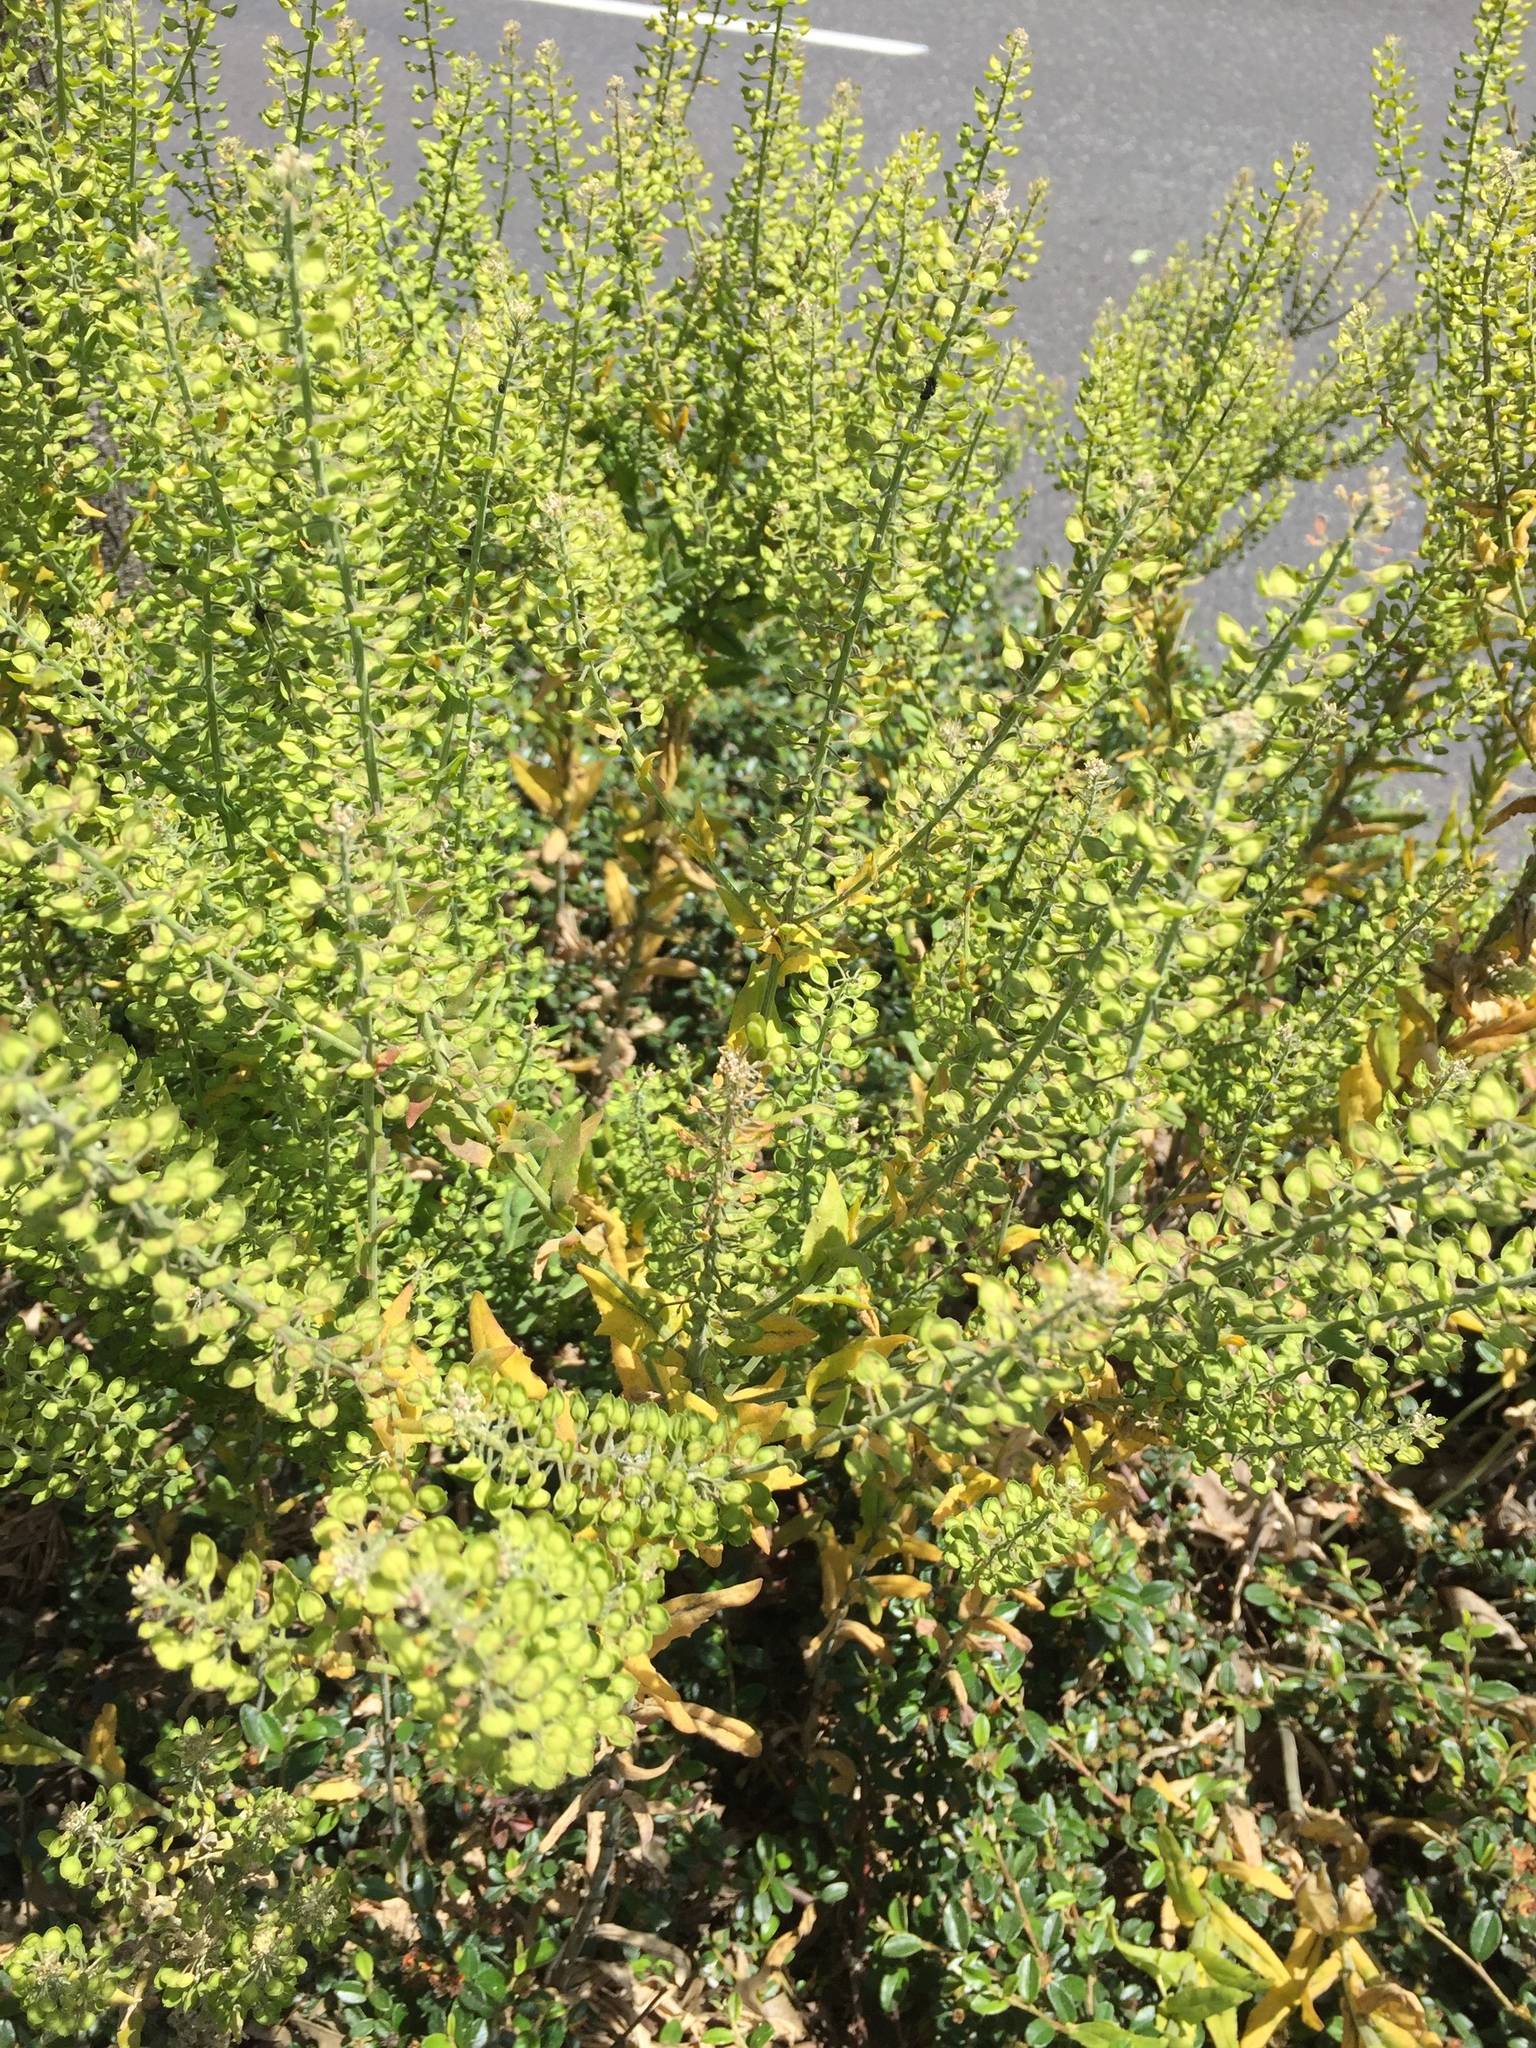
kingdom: Plantae
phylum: Tracheophyta
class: Magnoliopsida
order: Brassicales
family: Brassicaceae
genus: Lepidium
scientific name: Lepidium campestre
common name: Field pepperwort
